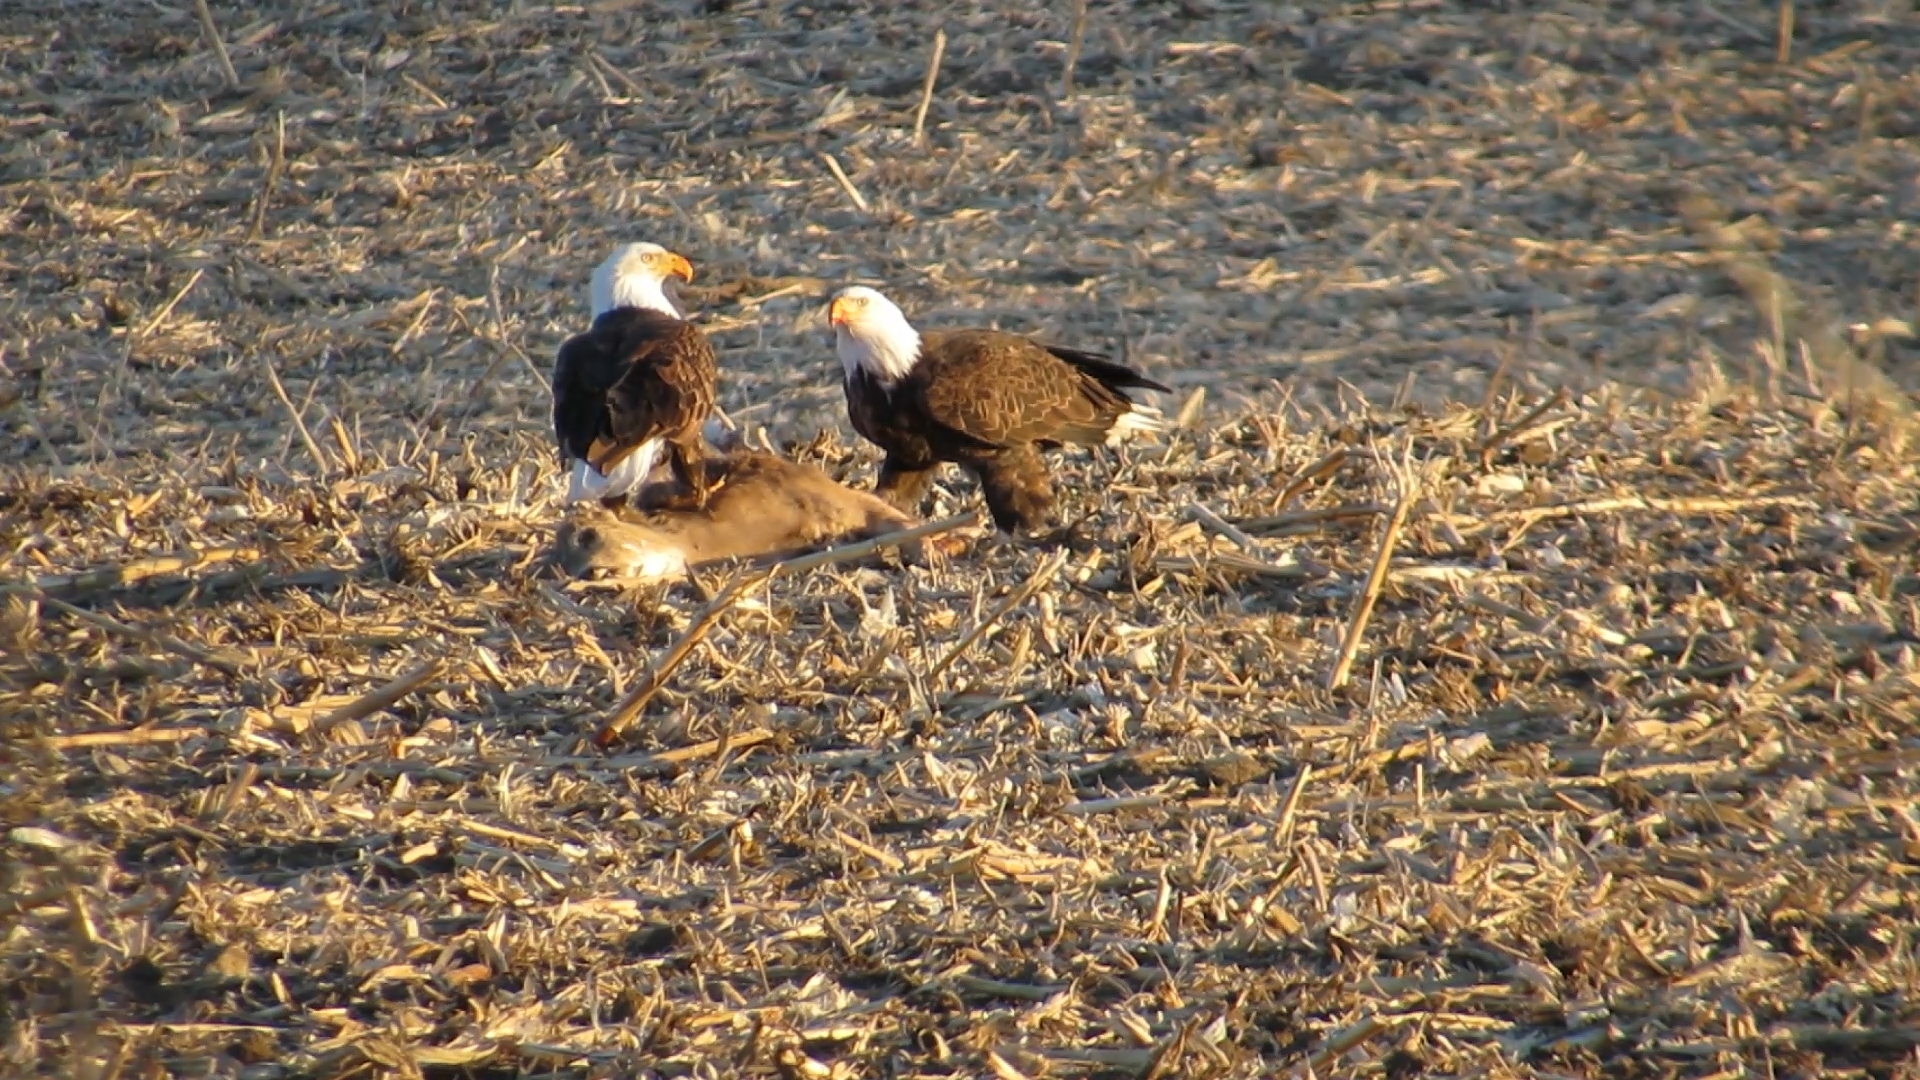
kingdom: Animalia
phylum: Chordata
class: Aves
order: Accipitriformes
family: Accipitridae
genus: Haliaeetus
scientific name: Haliaeetus leucocephalus
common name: Bald eagle
